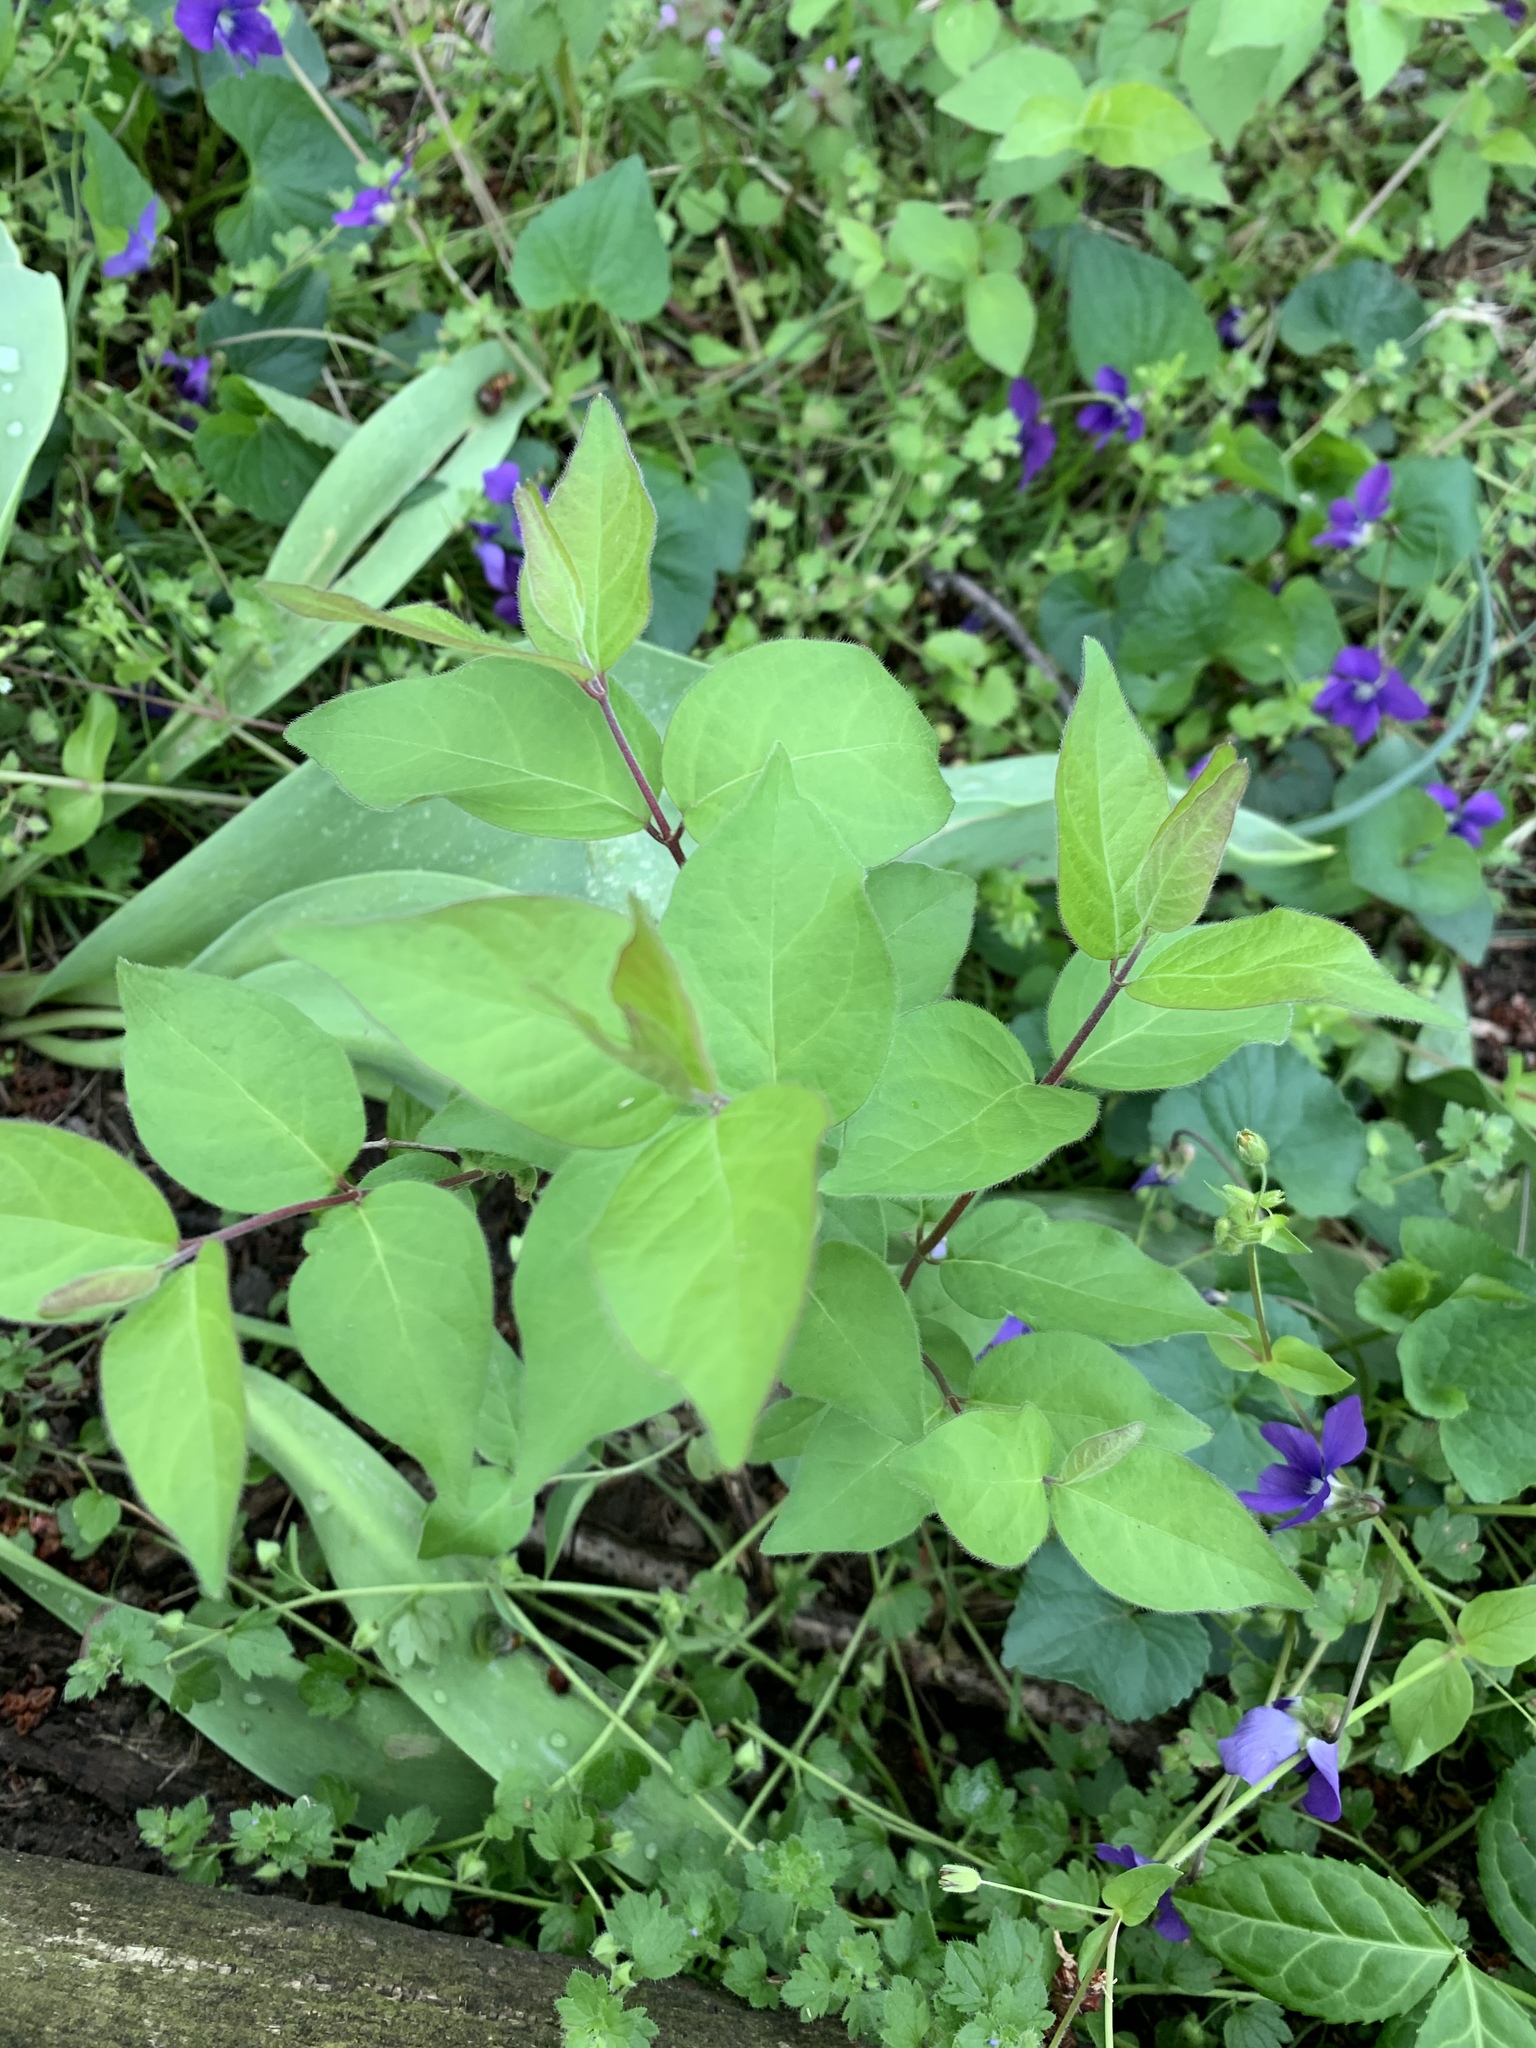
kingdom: Plantae
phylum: Tracheophyta
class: Magnoliopsida
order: Dipsacales
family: Caprifoliaceae
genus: Lonicera
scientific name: Lonicera maackii
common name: Amur honeysuckle
